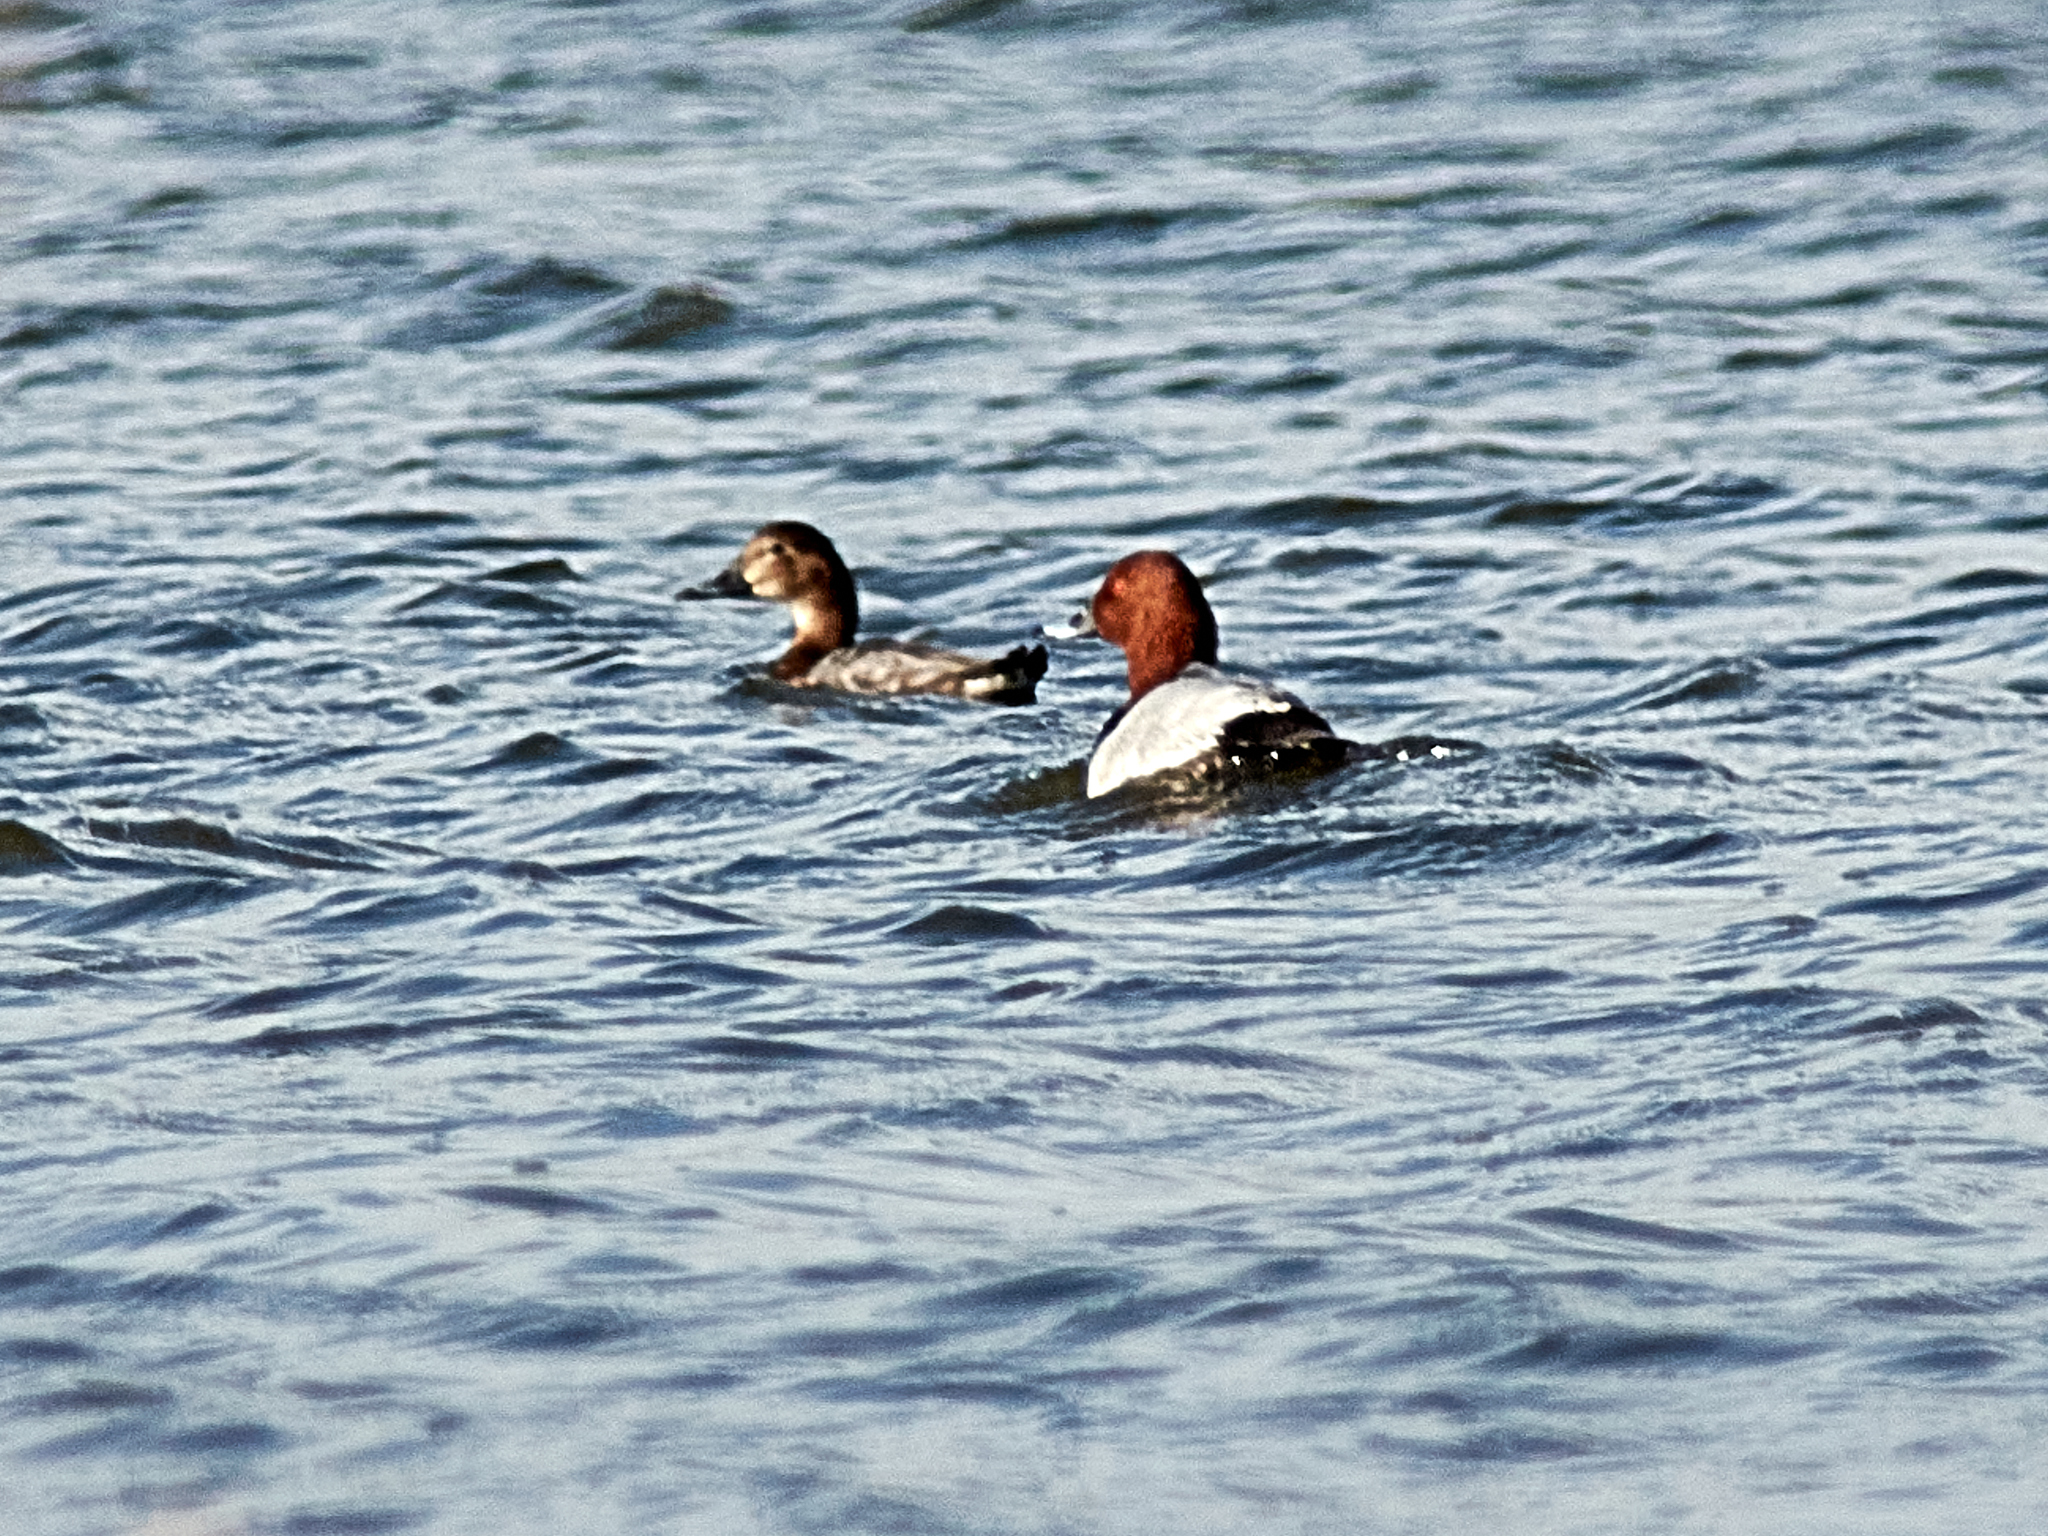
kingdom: Animalia
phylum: Chordata
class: Aves
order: Anseriformes
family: Anatidae
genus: Aythya
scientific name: Aythya ferina
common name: Common pochard
